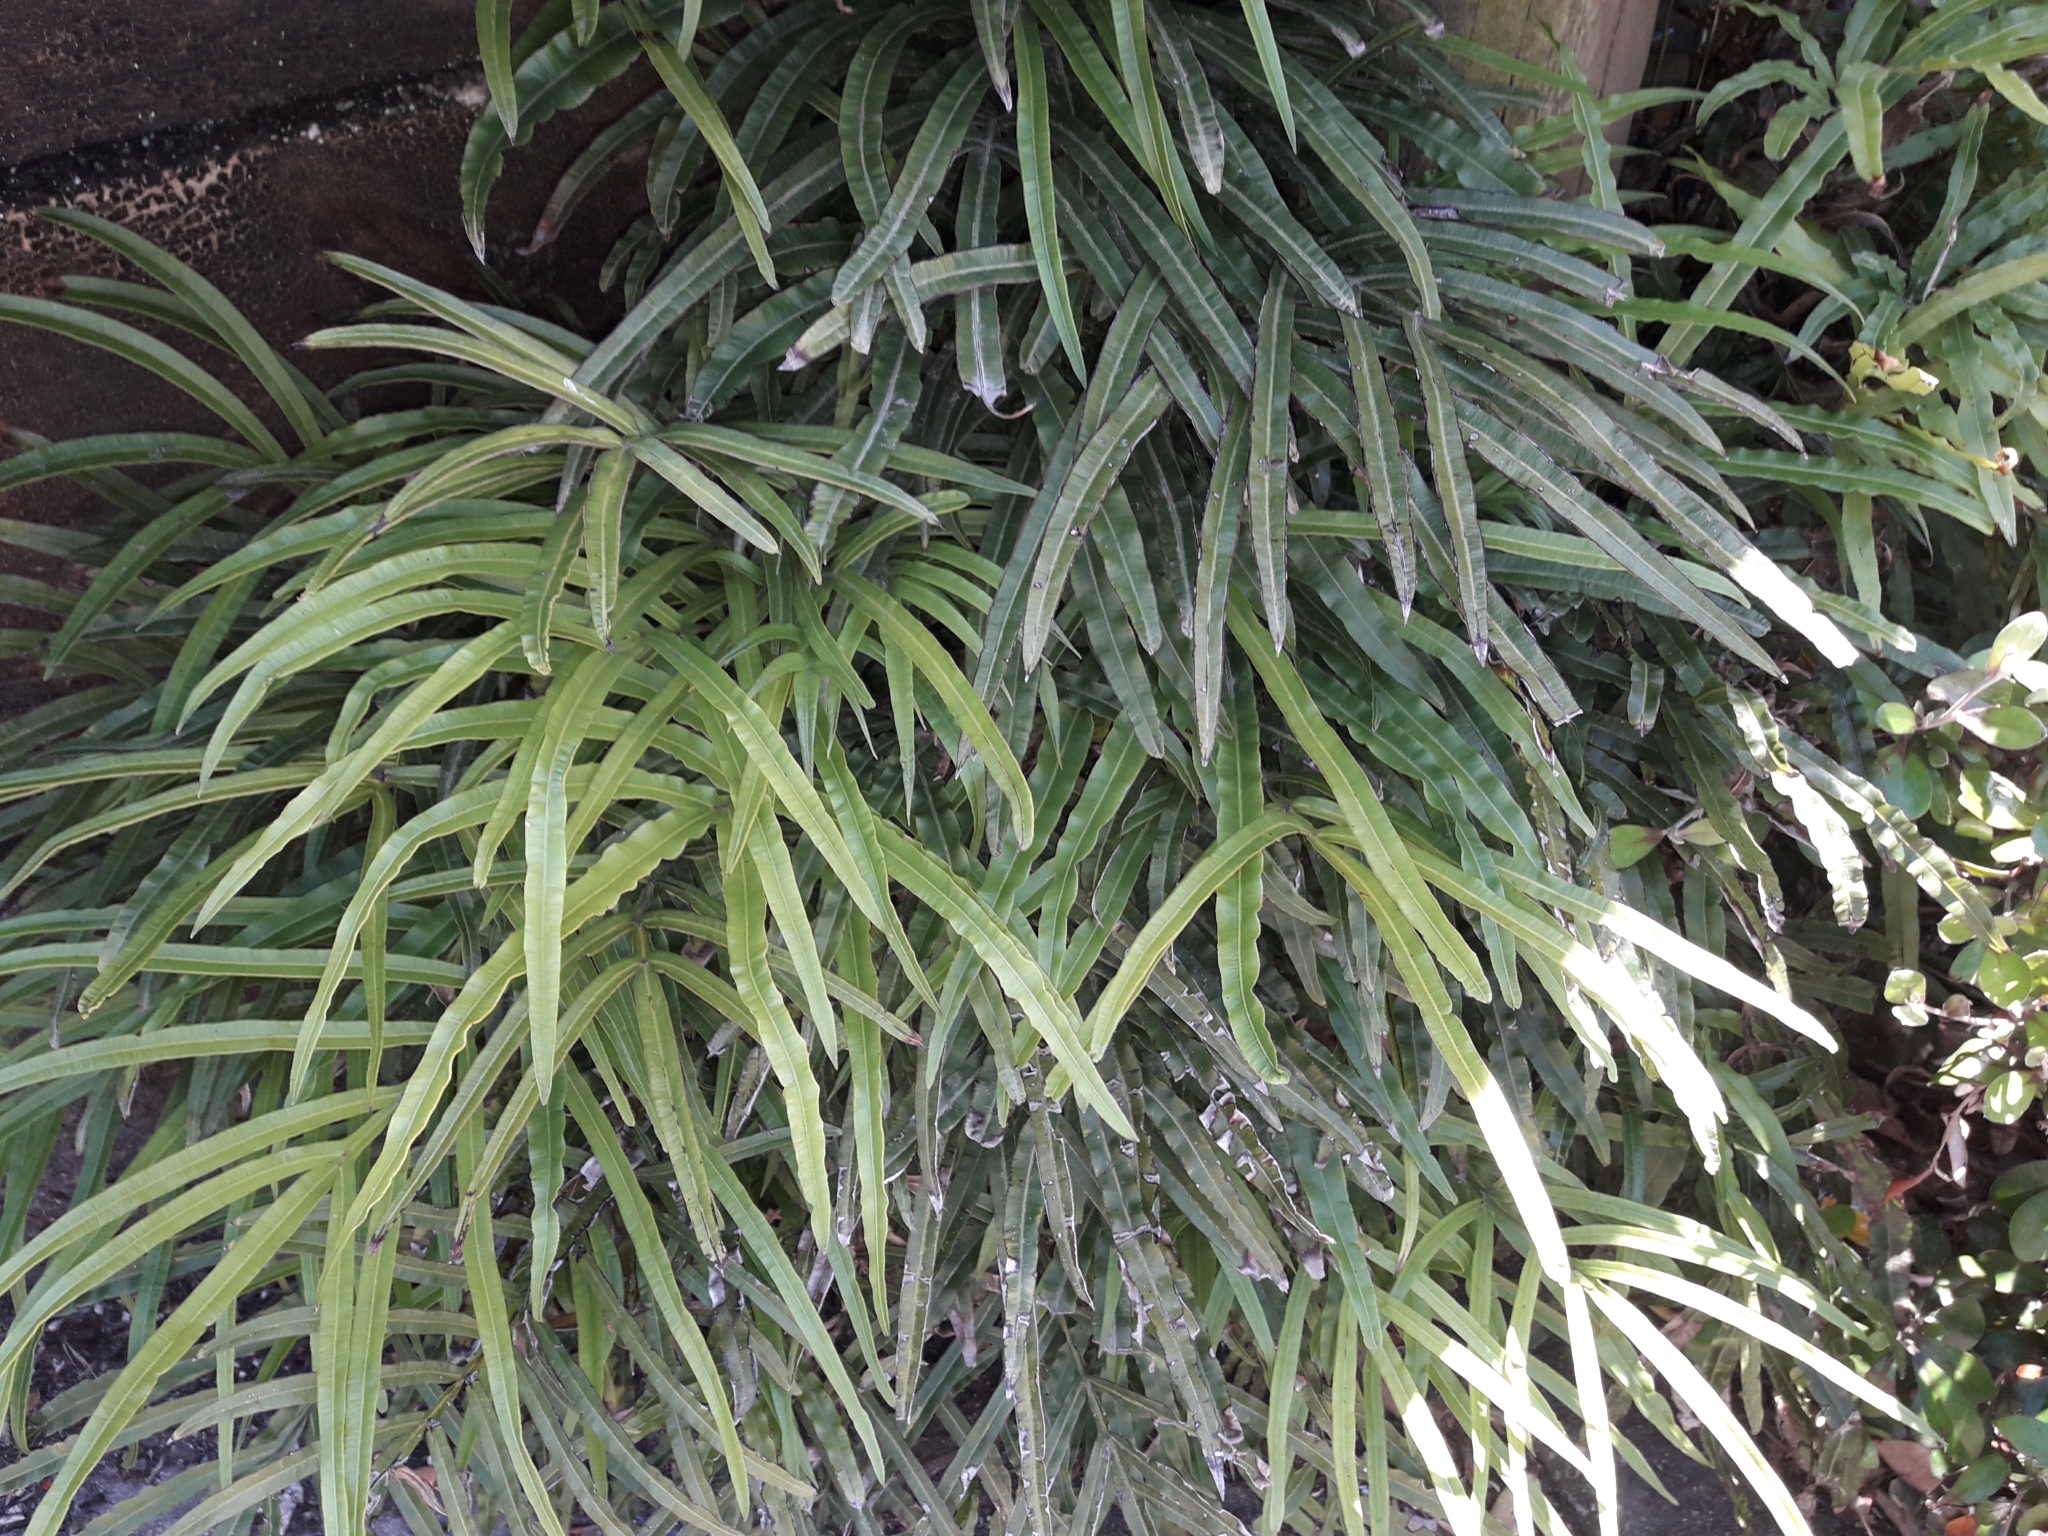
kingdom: Plantae
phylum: Tracheophyta
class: Polypodiopsida
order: Polypodiales
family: Pteridaceae
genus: Pteris
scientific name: Pteris cretica
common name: Ribbon fern
